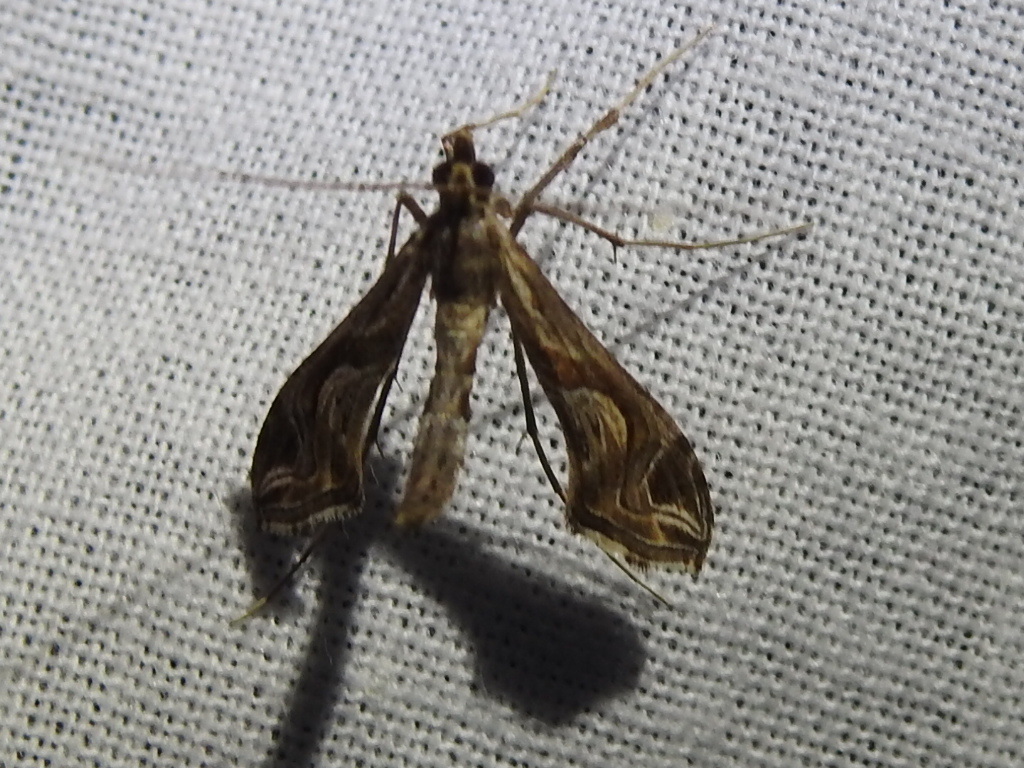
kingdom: Animalia
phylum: Arthropoda
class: Insecta
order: Lepidoptera
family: Crambidae
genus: Lineodes
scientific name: Lineodes integra
